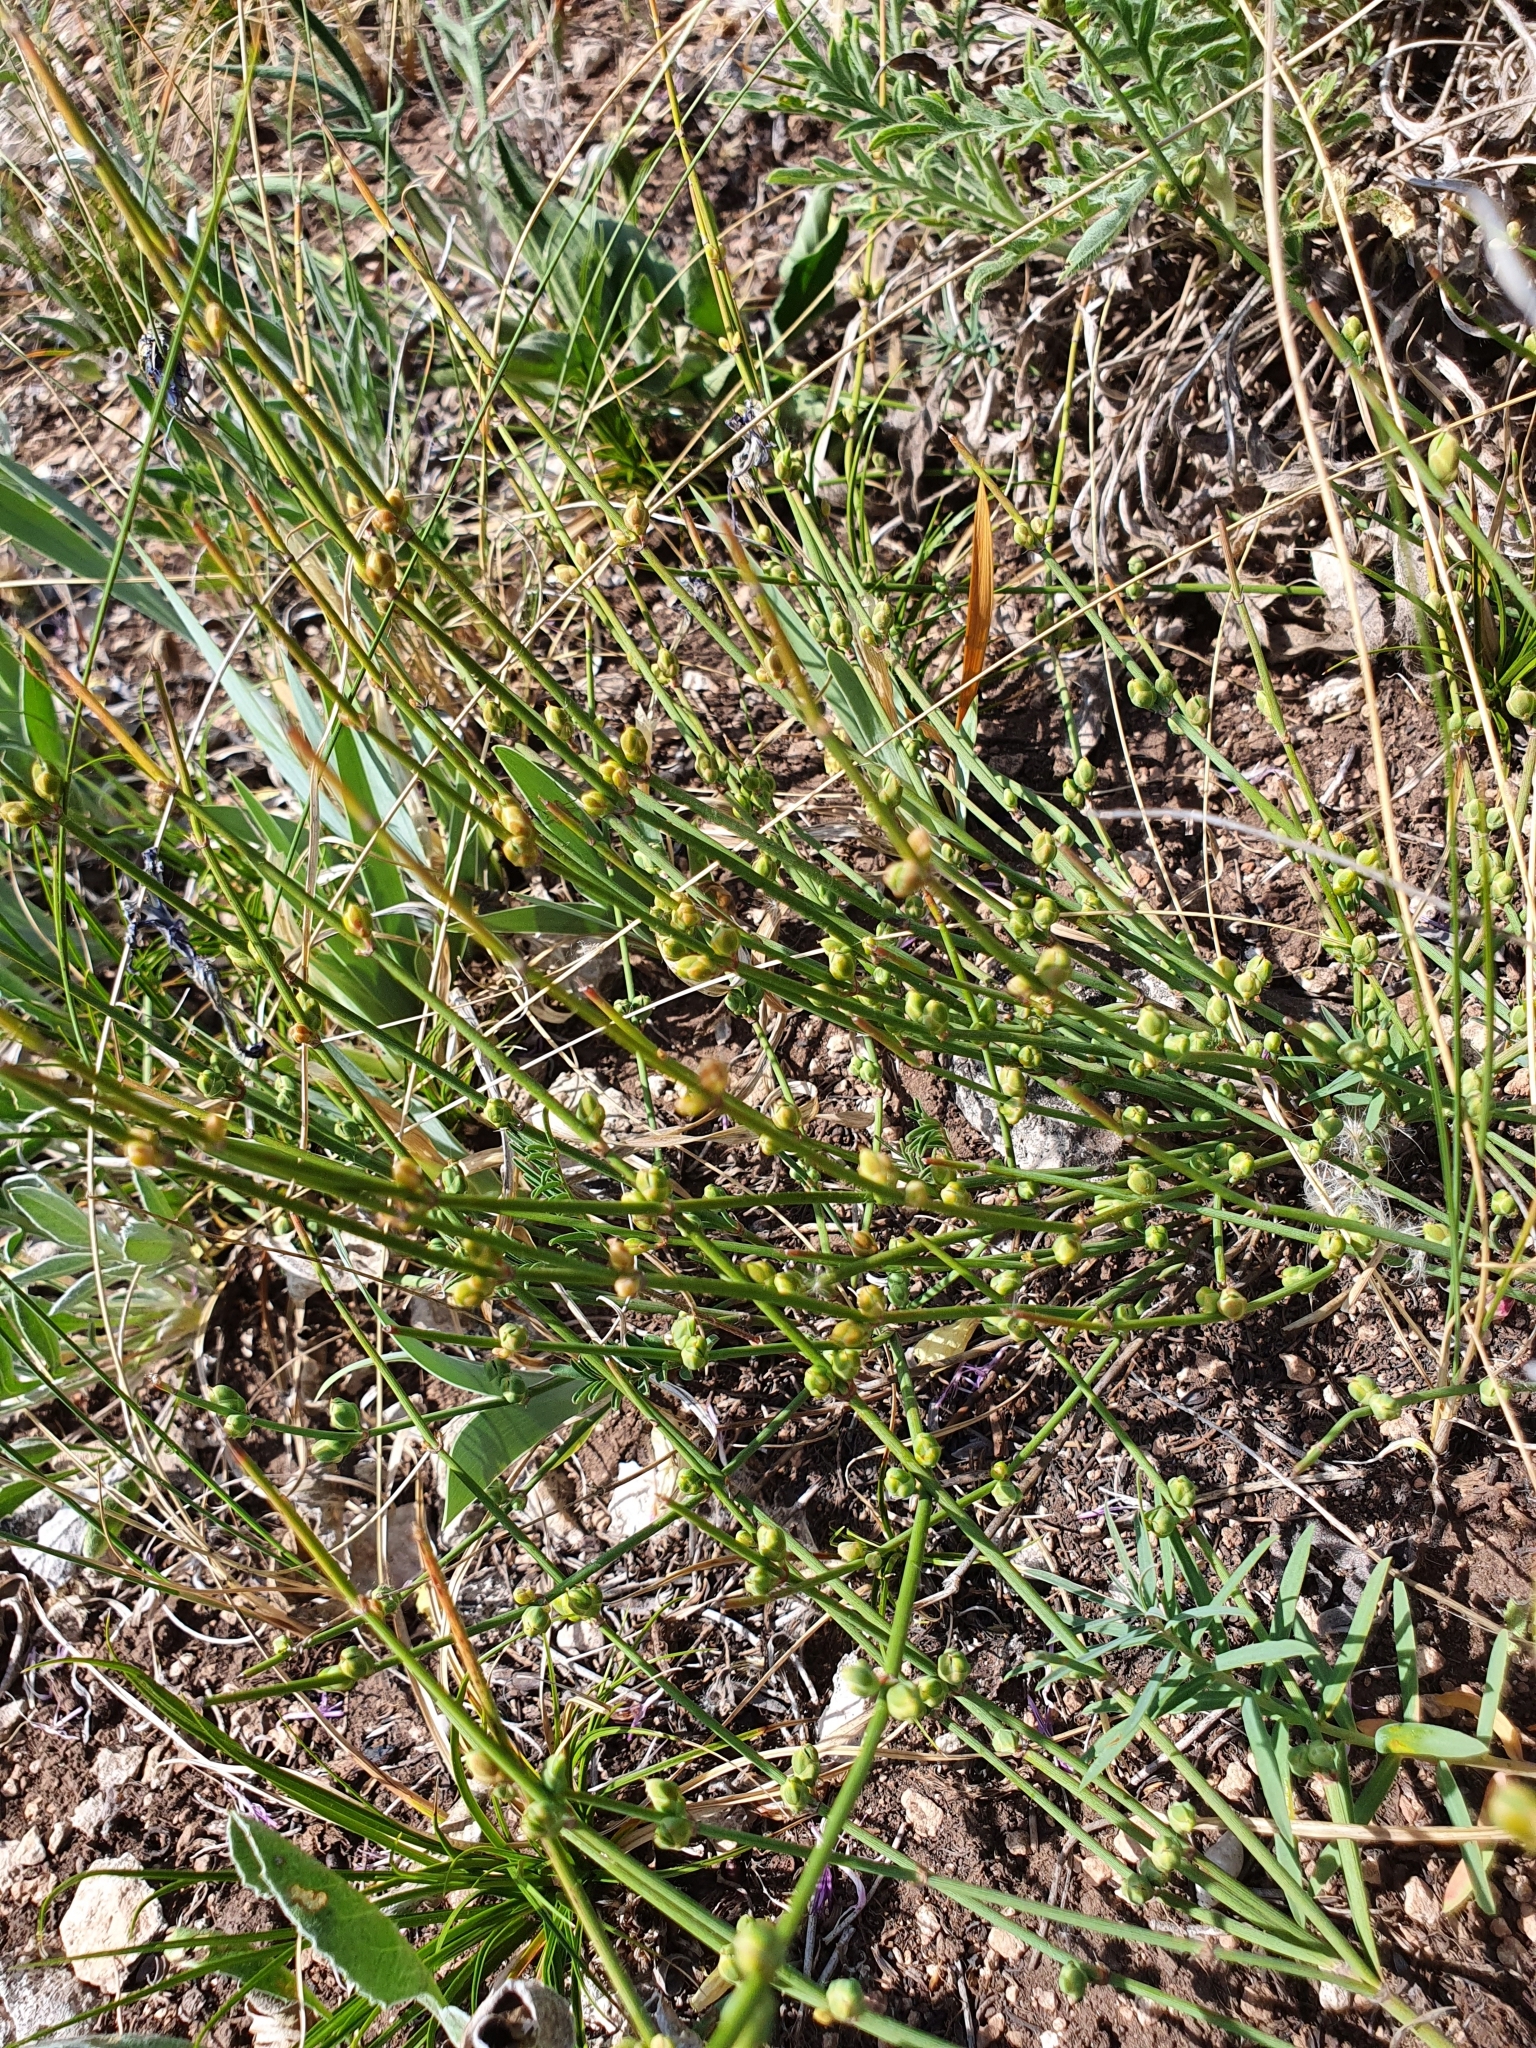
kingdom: Plantae
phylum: Tracheophyta
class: Gnetopsida
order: Ephedrales
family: Ephedraceae
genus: Ephedra
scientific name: Ephedra distachya
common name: Sea grape
